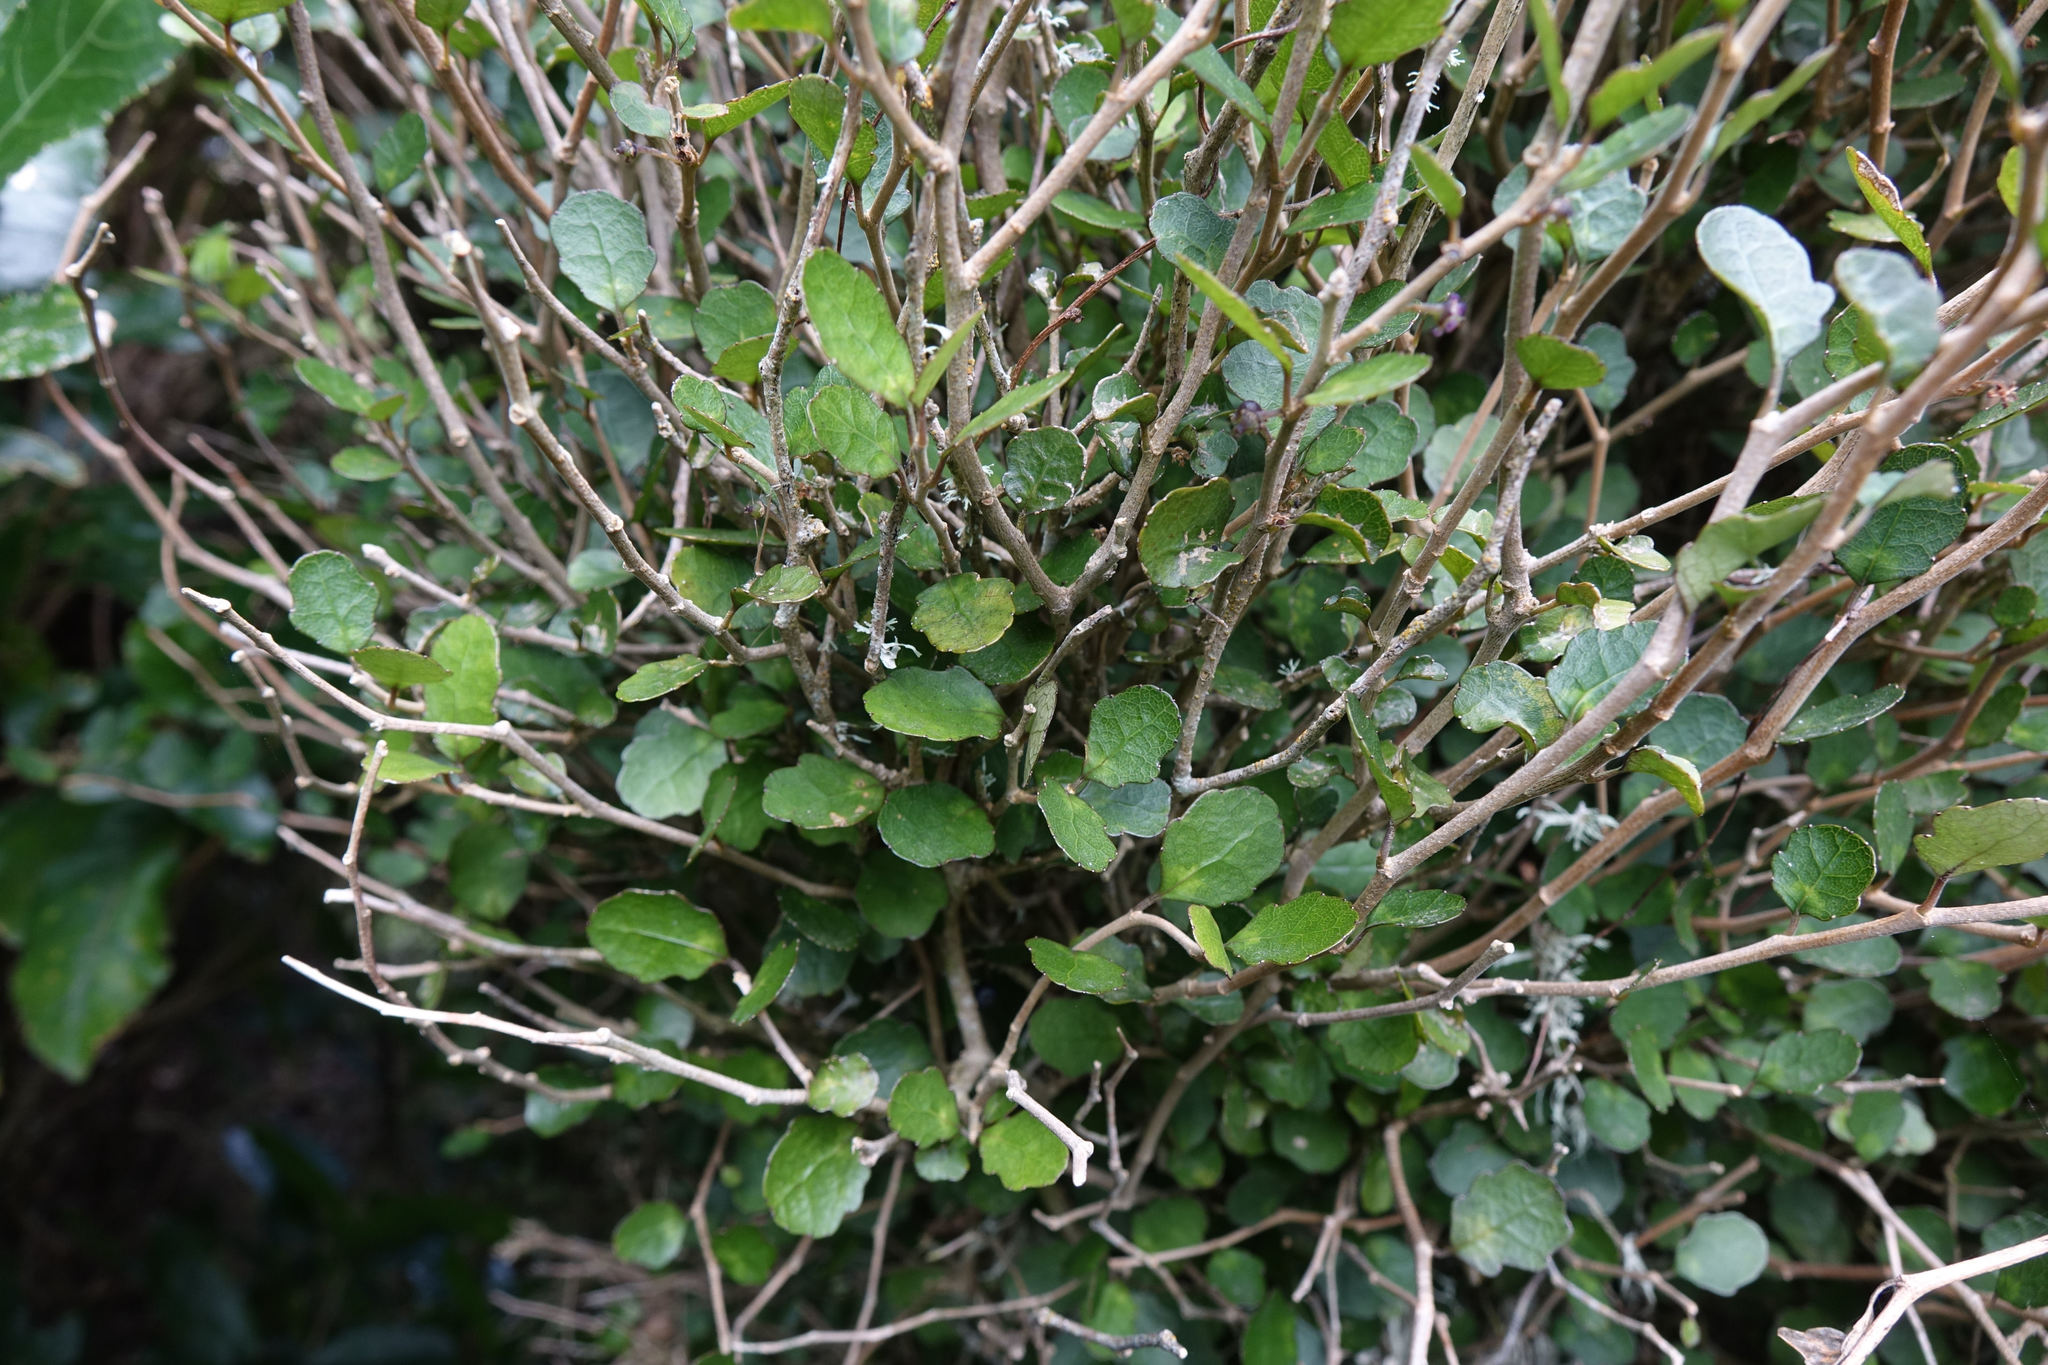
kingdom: Plantae
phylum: Tracheophyta
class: Magnoliopsida
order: Malpighiales
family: Violaceae
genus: Melicytus
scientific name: Melicytus micranthus
